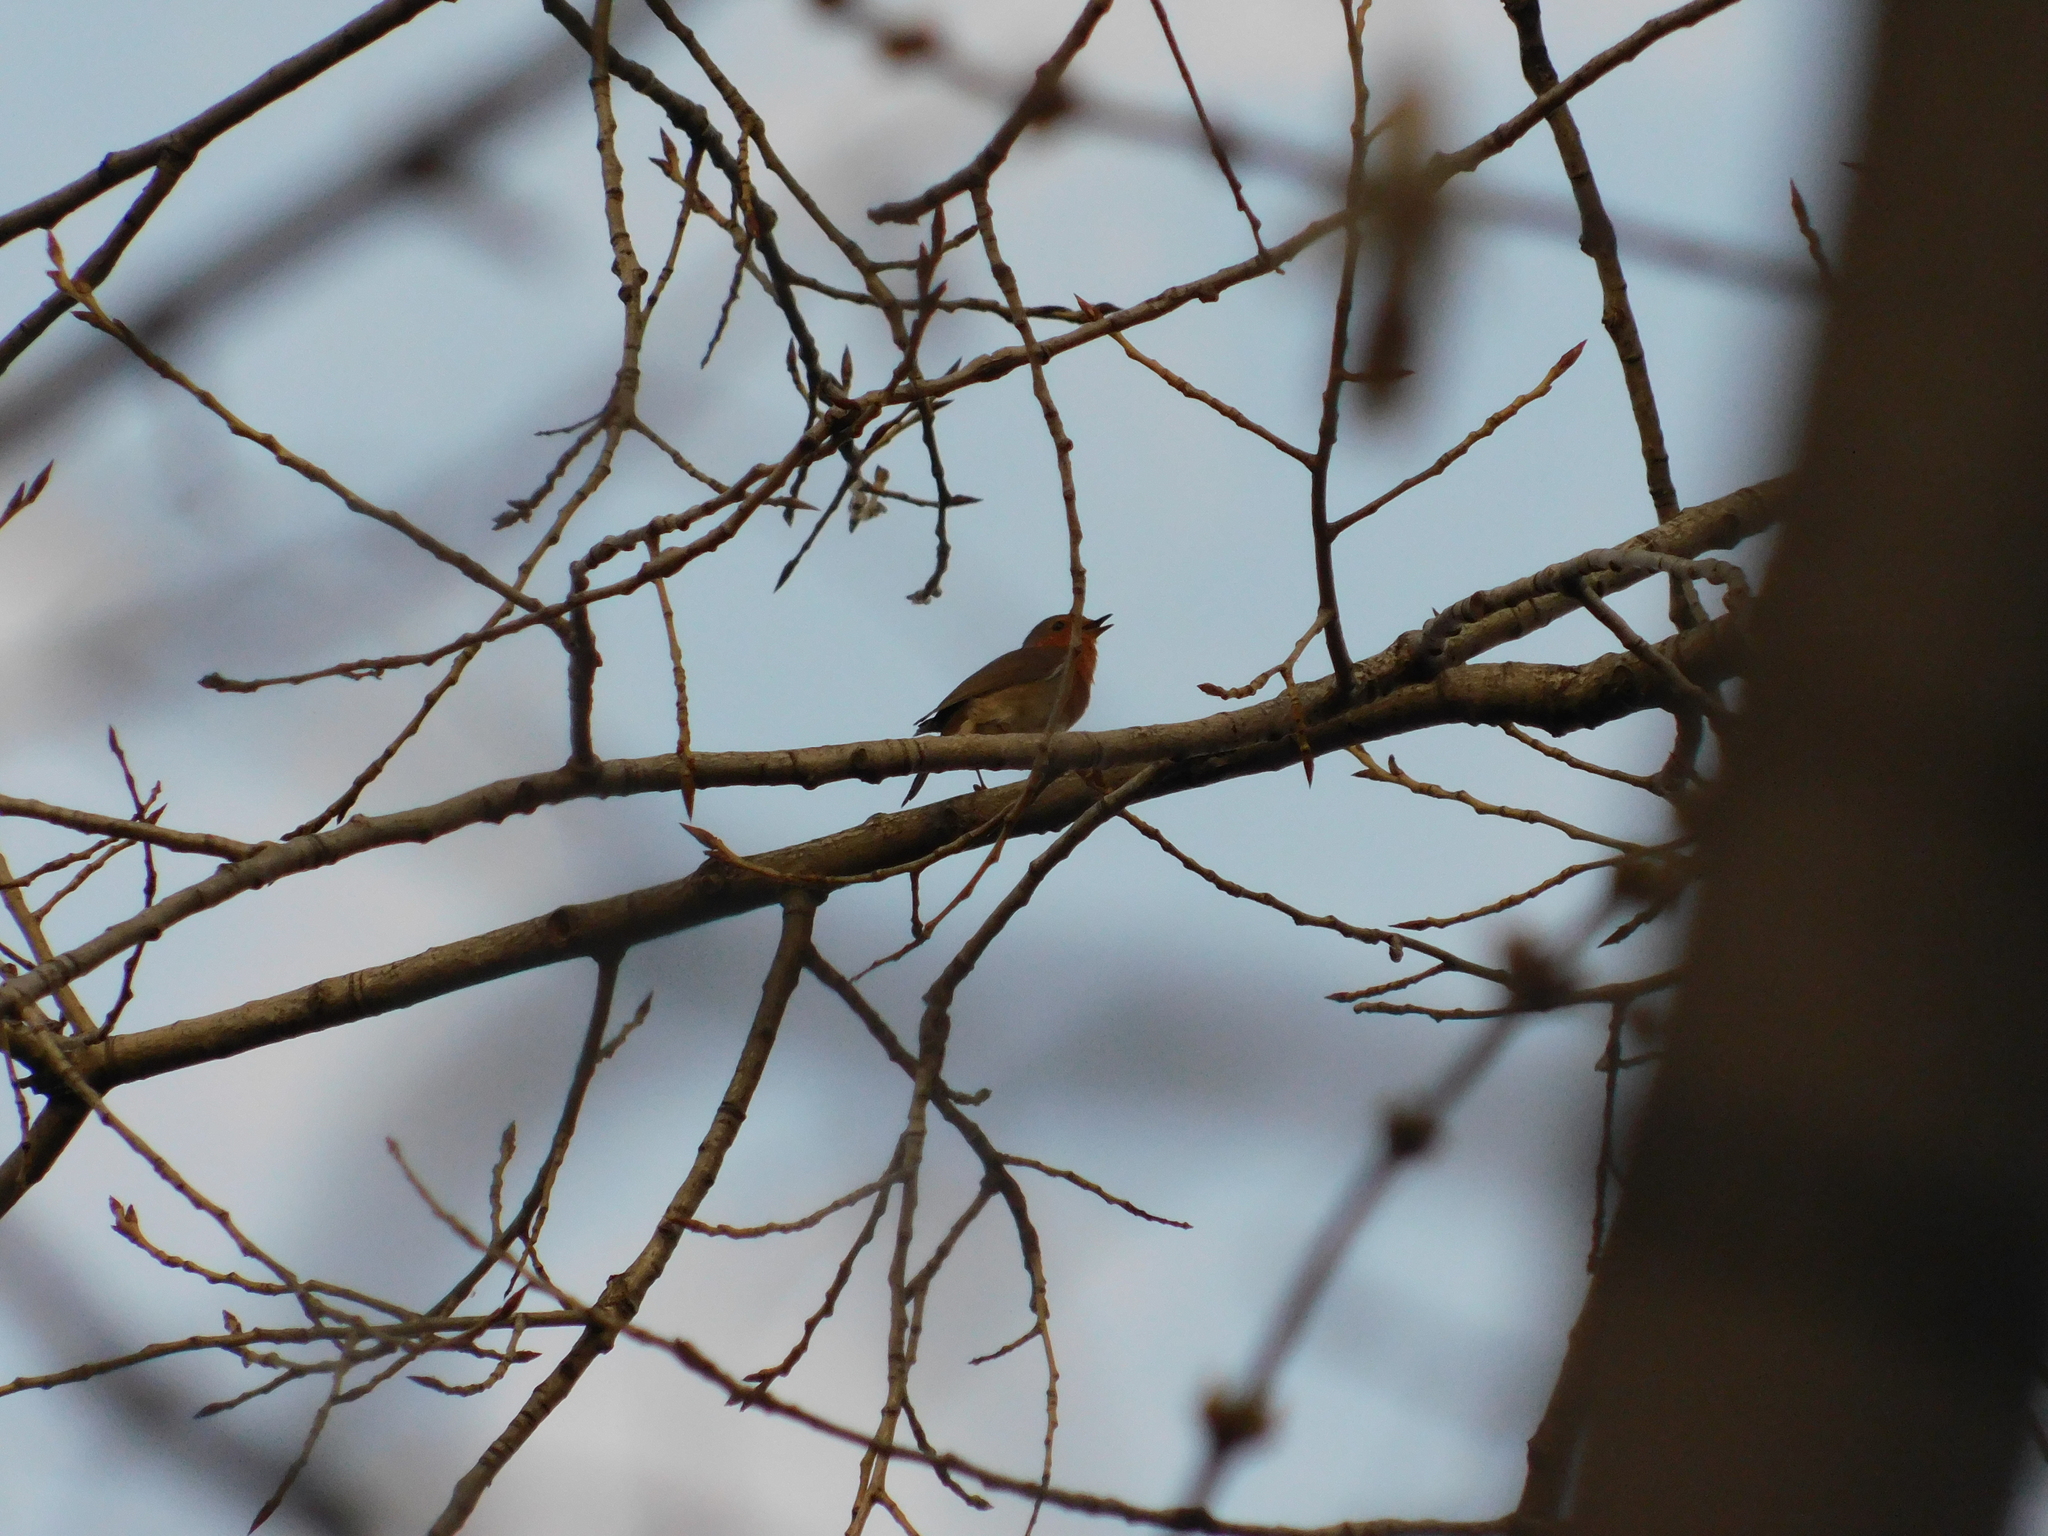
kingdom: Animalia
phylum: Chordata
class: Aves
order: Passeriformes
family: Muscicapidae
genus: Erithacus
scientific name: Erithacus rubecula
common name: European robin
